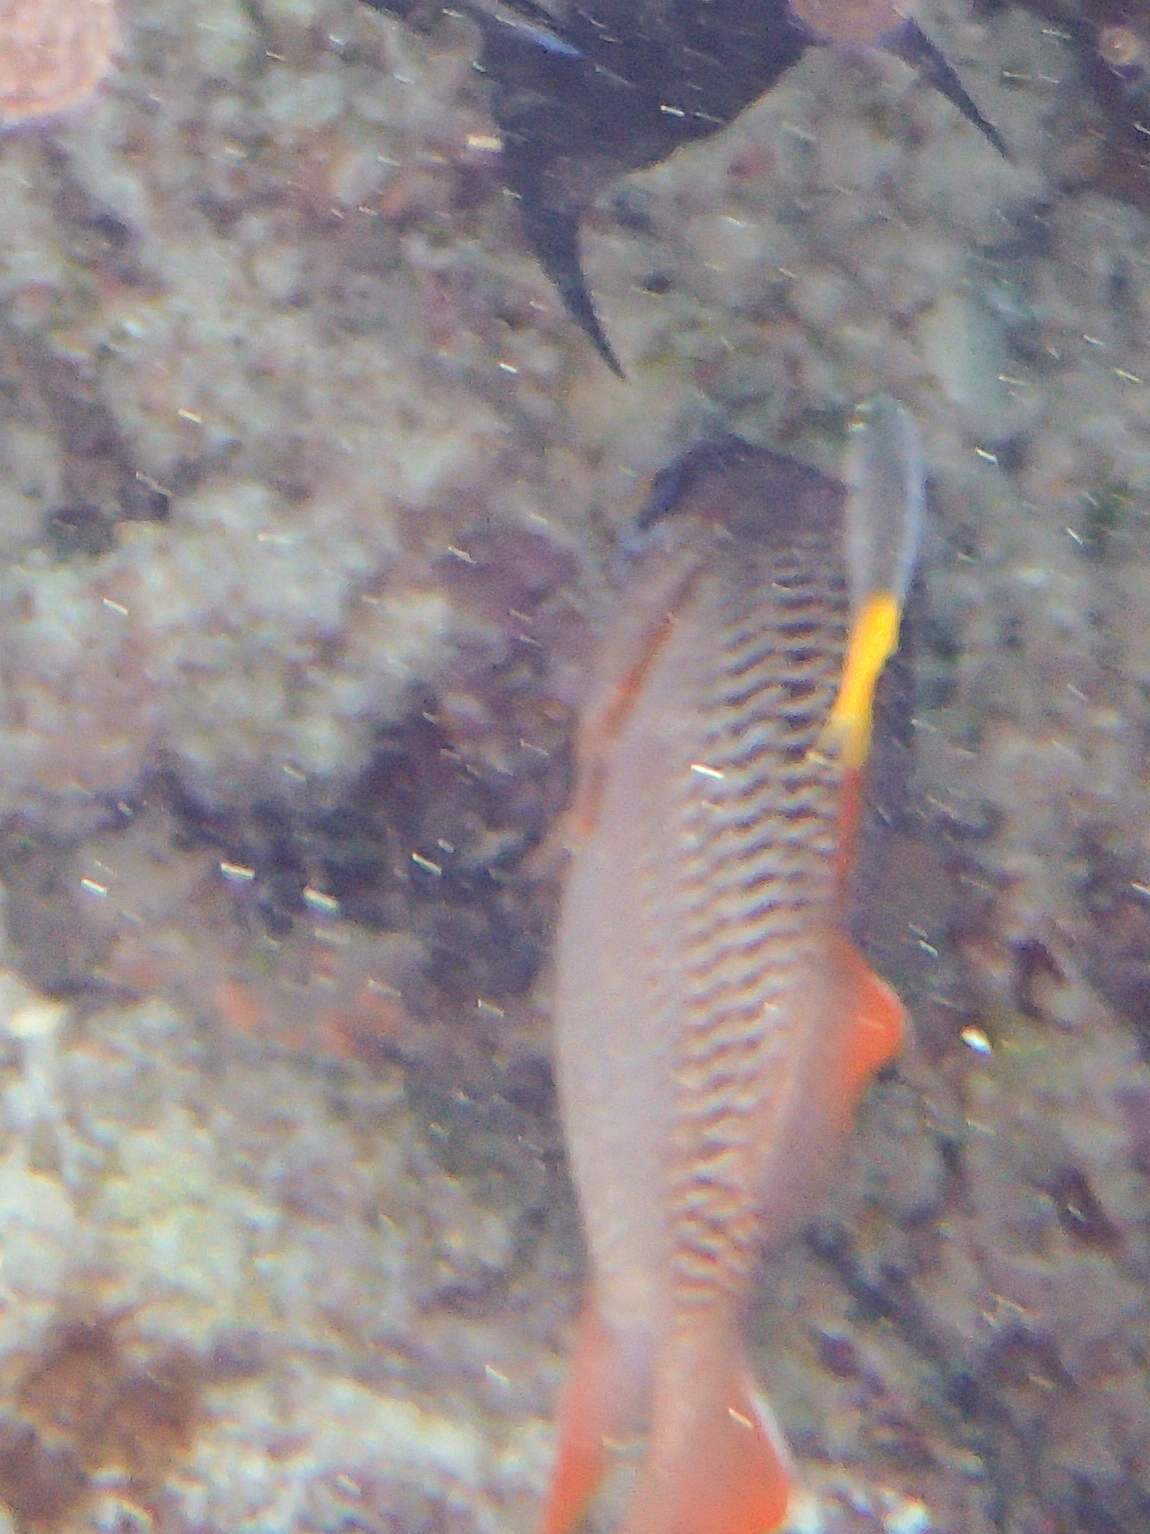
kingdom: Animalia
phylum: Chordata
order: Beryciformes
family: Holocentridae
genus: Myripristis
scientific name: Myripristis violacea
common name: Lattice soldierfish
